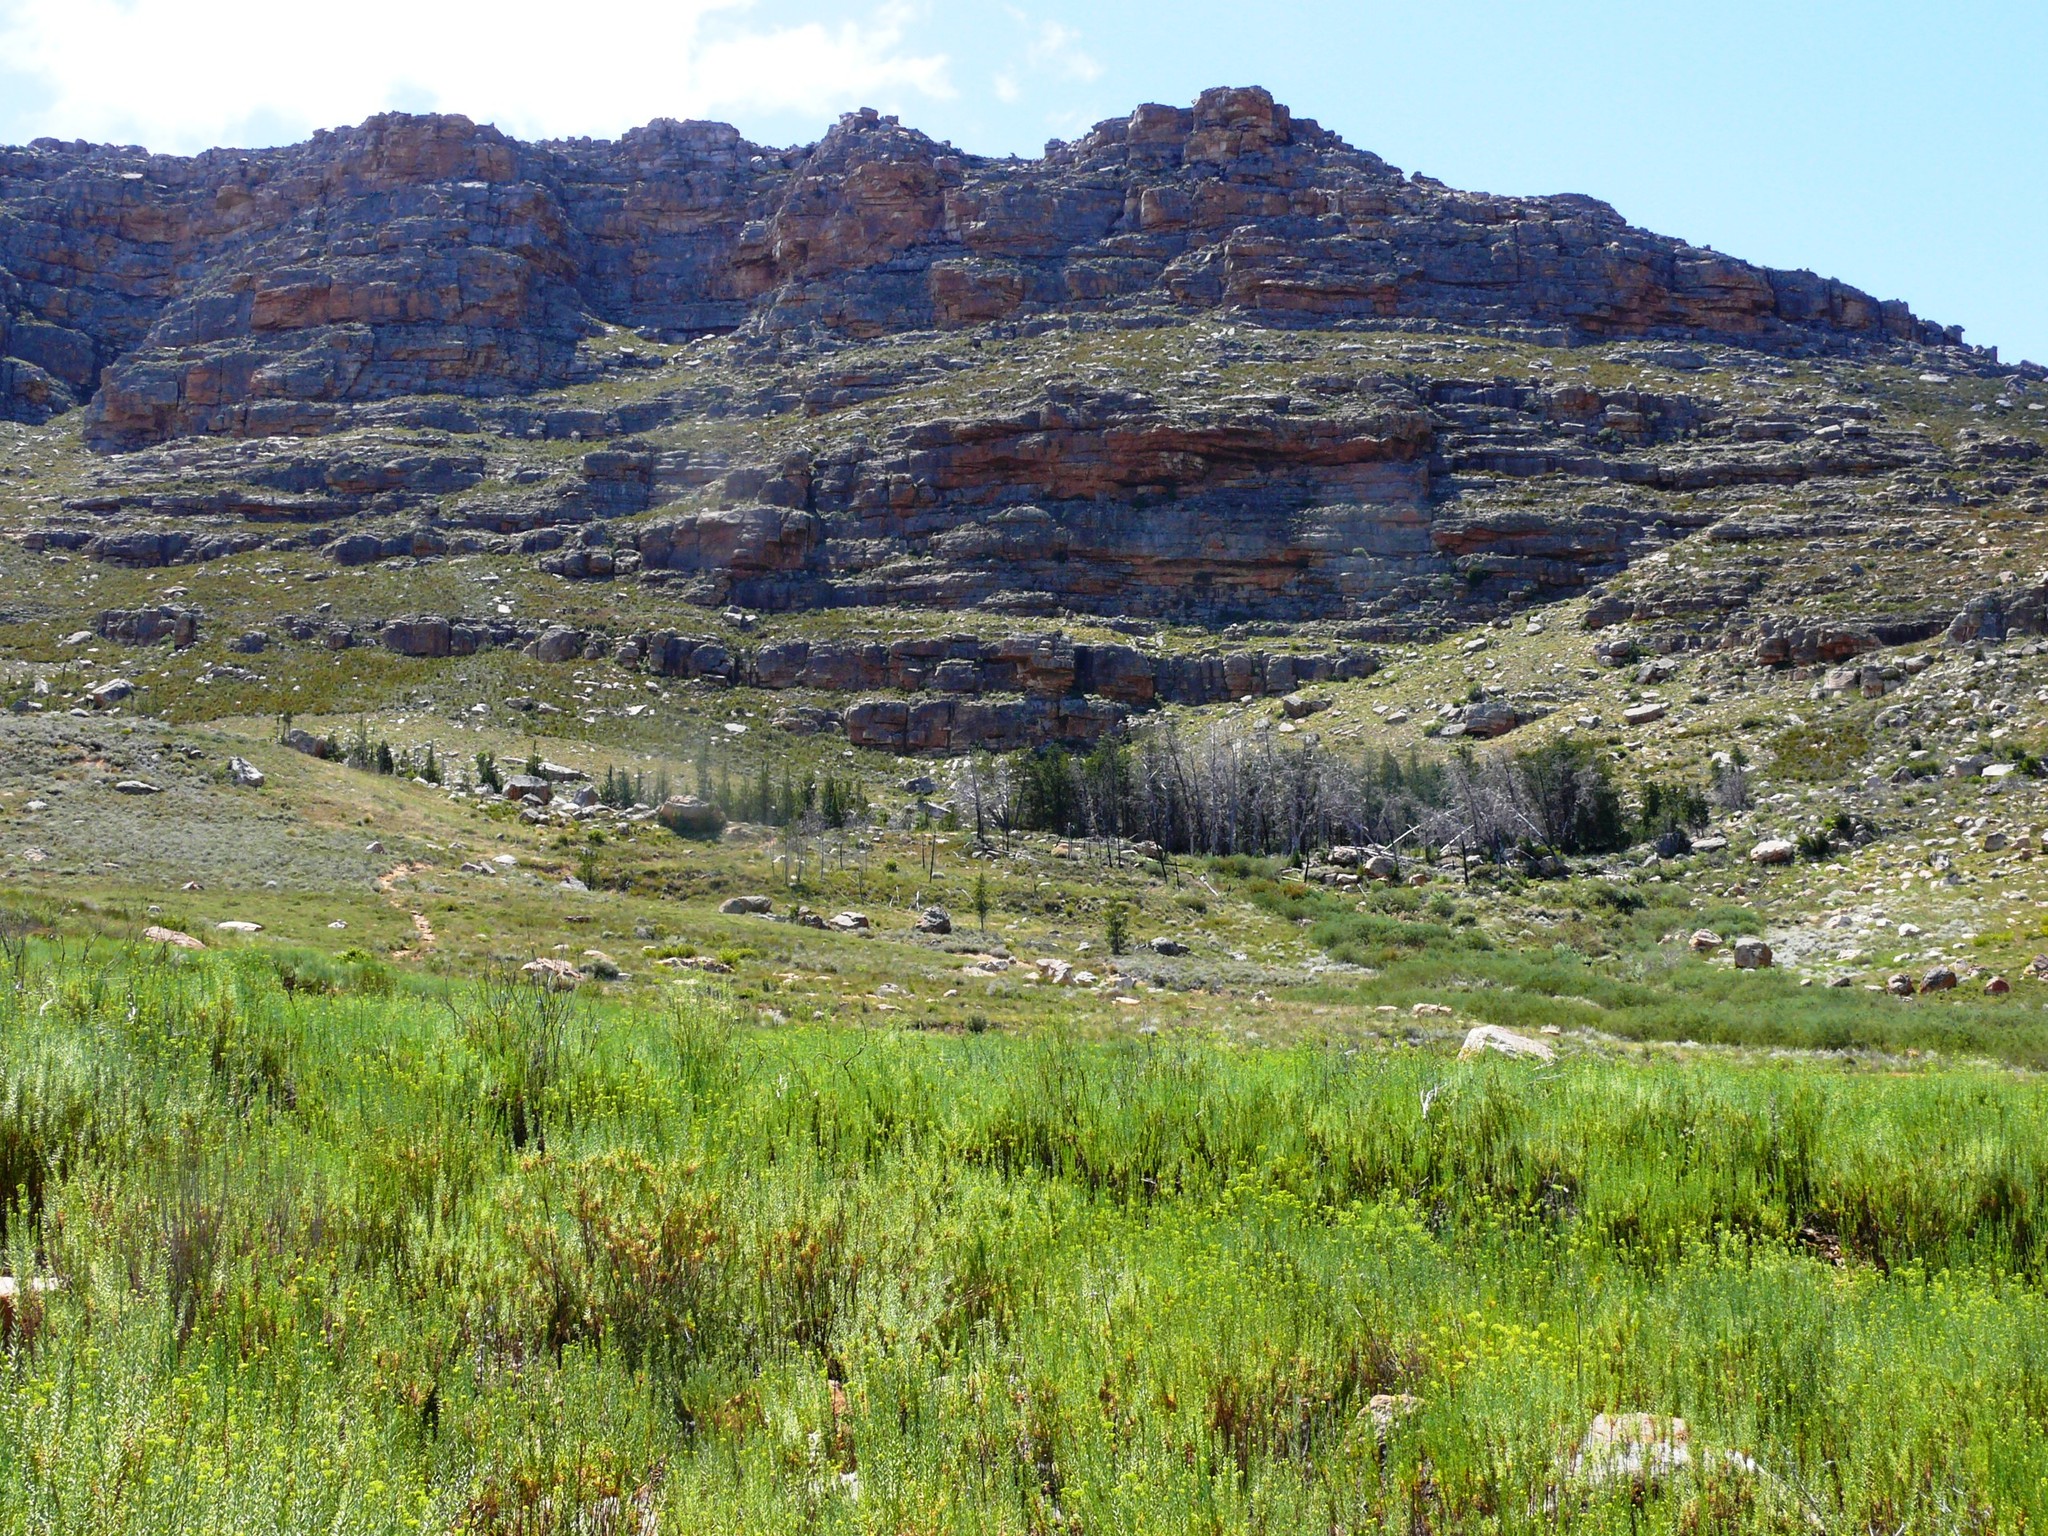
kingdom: Plantae
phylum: Tracheophyta
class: Pinopsida
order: Pinales
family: Cupressaceae
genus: Widdringtonia
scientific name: Widdringtonia nodiflora
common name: Cape cypress
